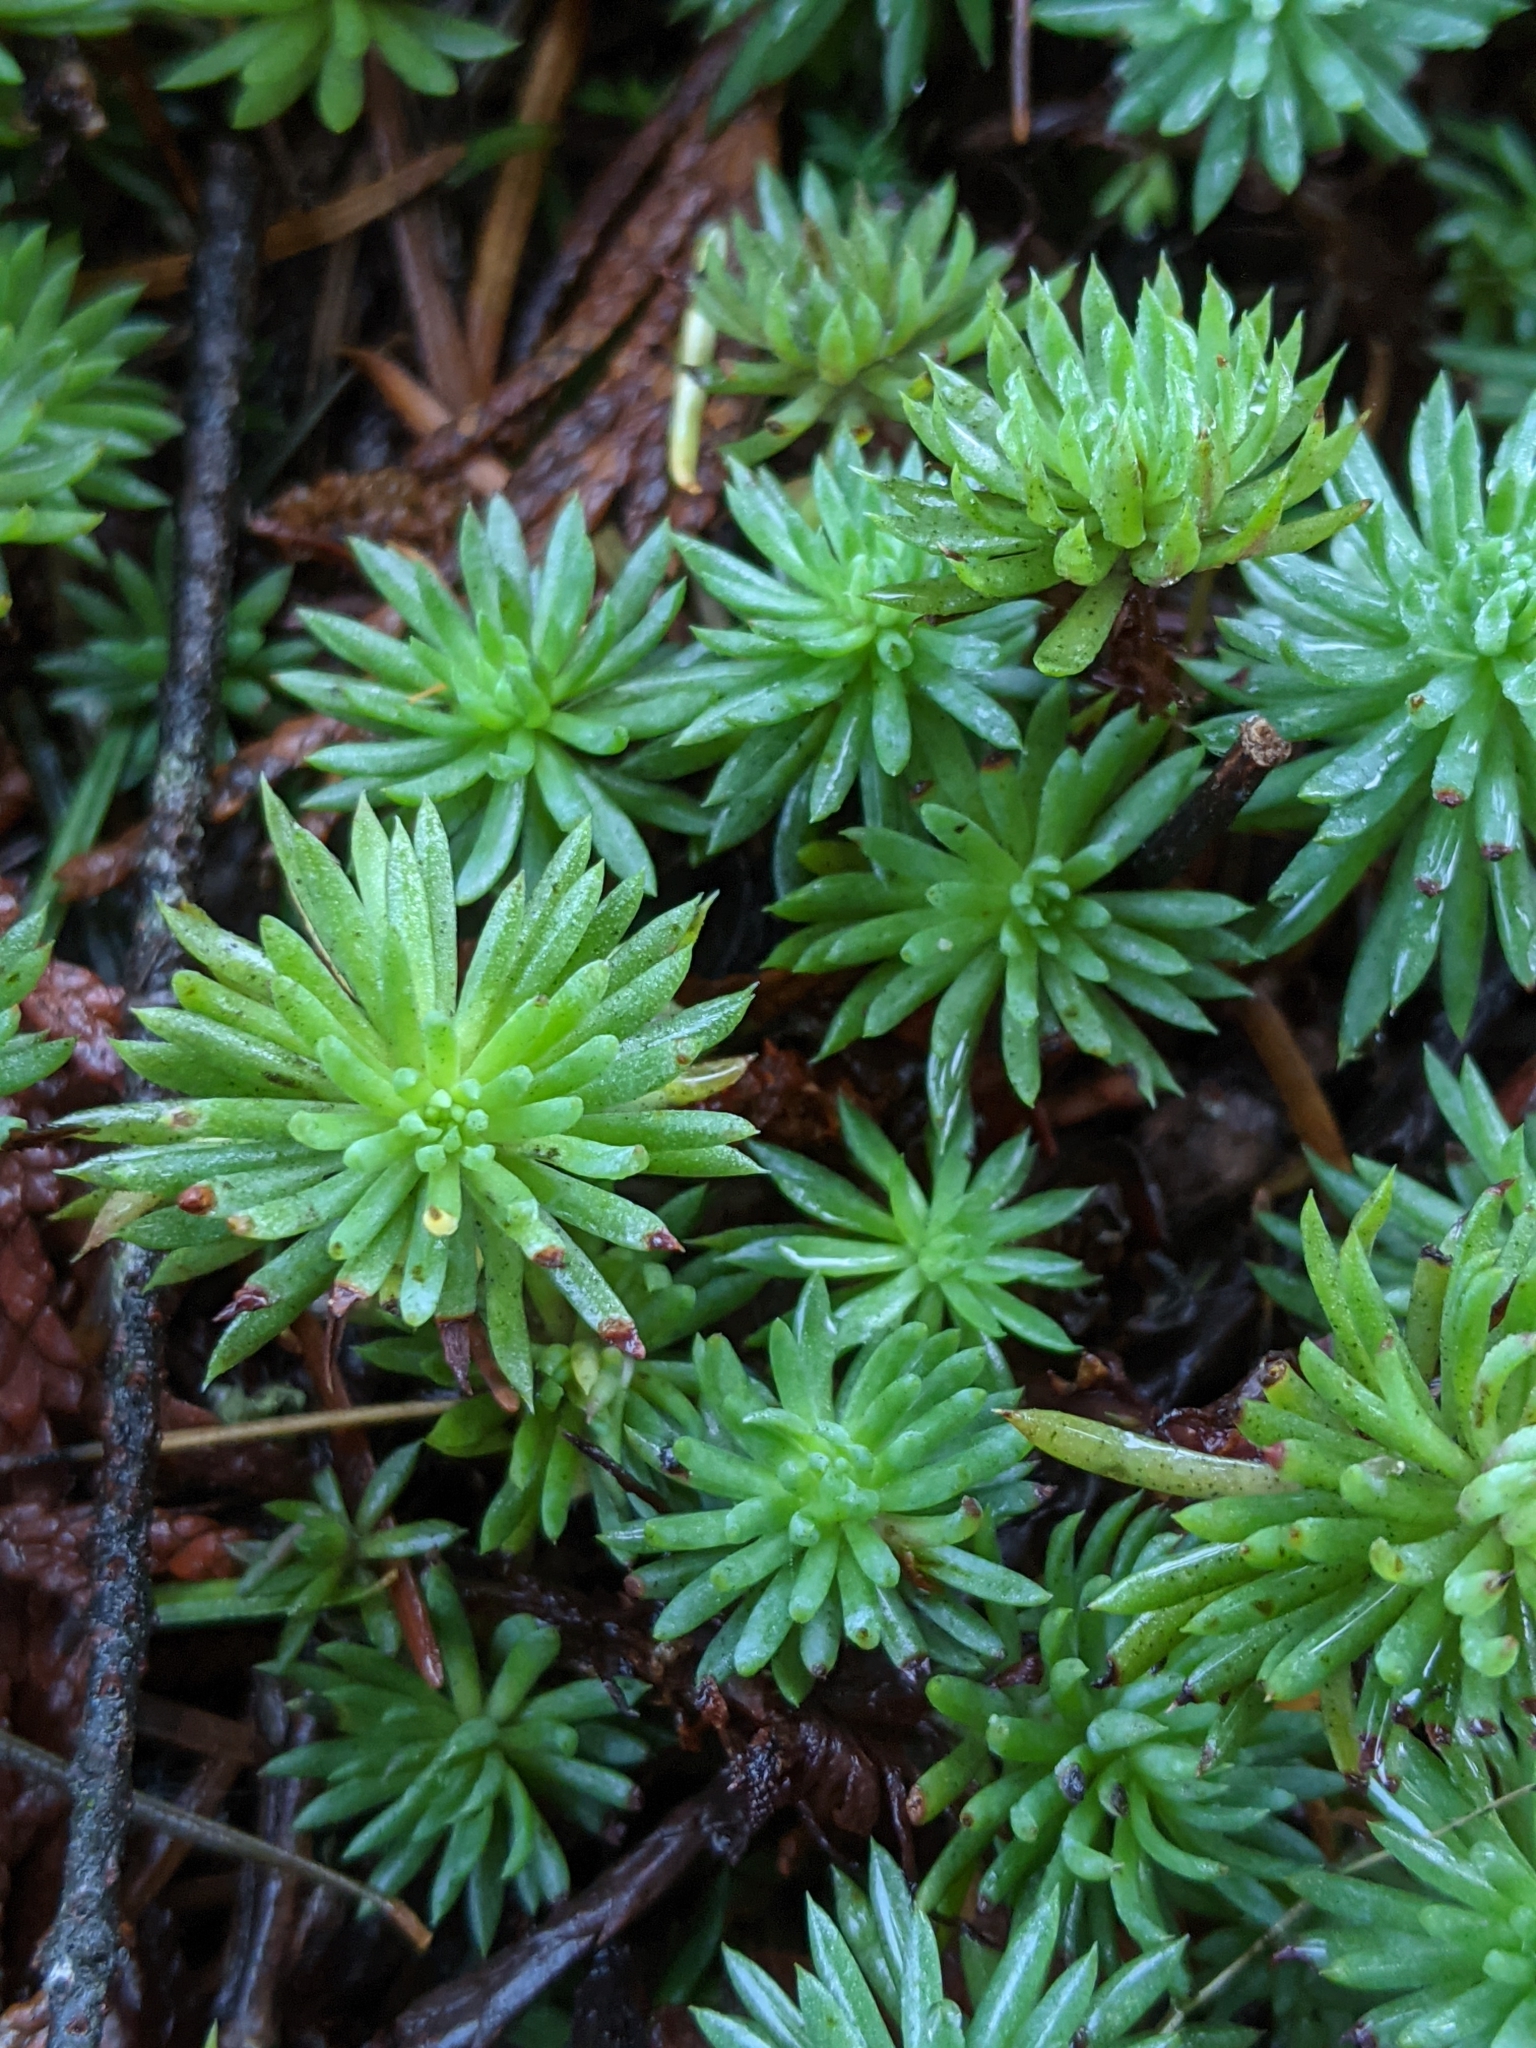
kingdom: Plantae
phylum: Tracheophyta
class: Magnoliopsida
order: Saxifragales
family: Crassulaceae
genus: Petrosedum
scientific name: Petrosedum forsterianum
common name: Forster's stonecrop
